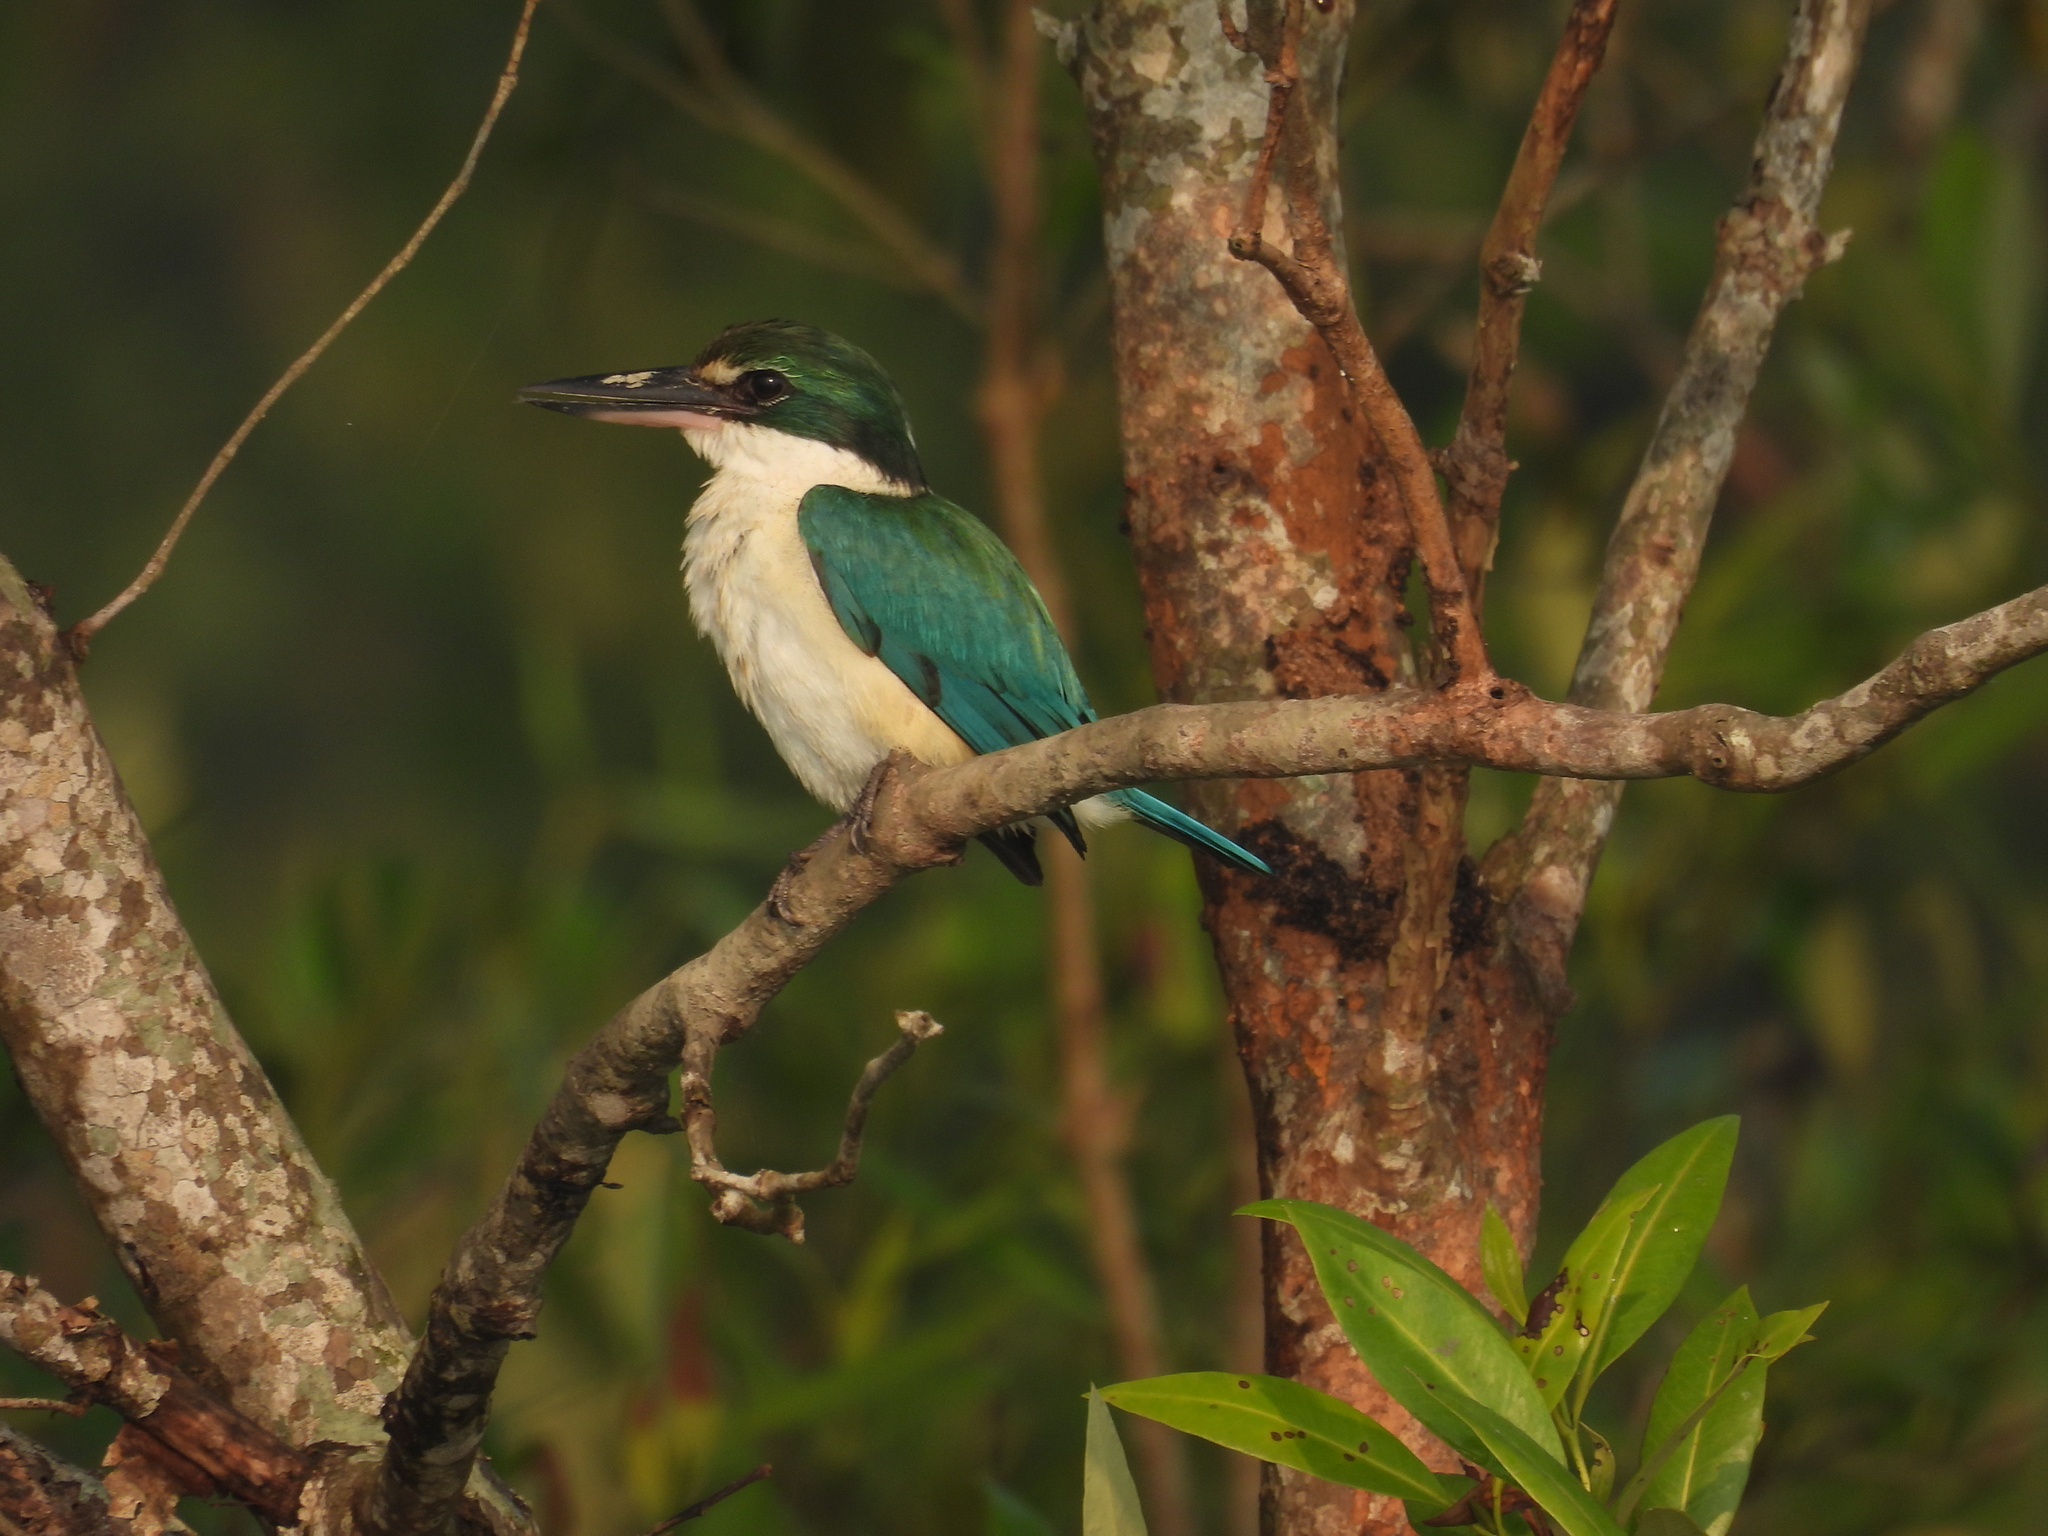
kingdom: Animalia
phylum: Chordata
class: Aves
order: Coraciiformes
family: Alcedinidae
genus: Todiramphus
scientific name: Todiramphus chloris
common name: Collared kingfisher
